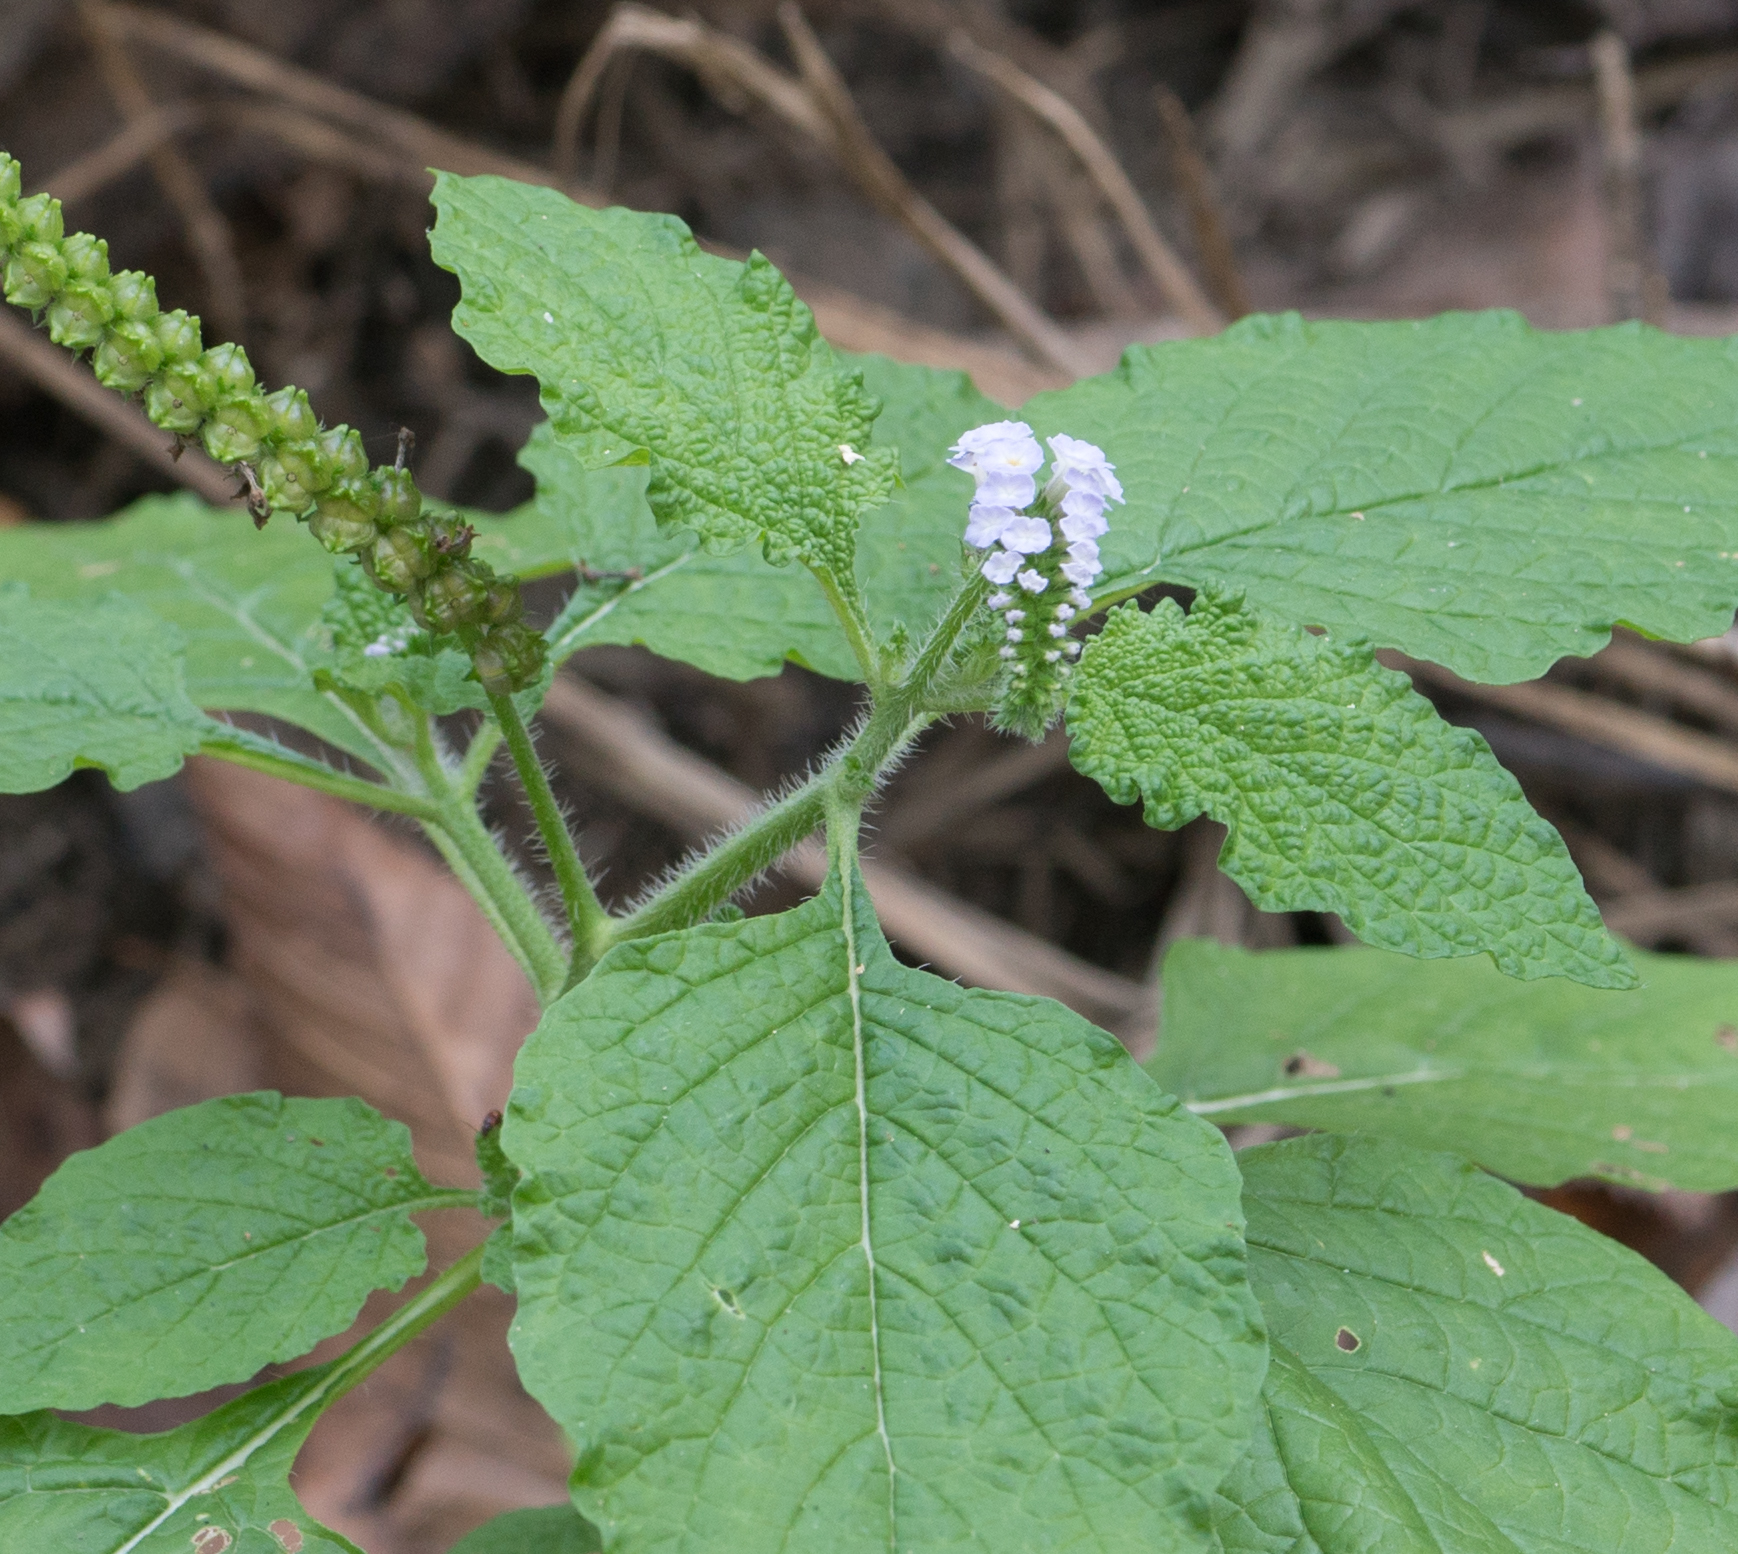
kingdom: Plantae
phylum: Tracheophyta
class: Magnoliopsida
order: Boraginales
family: Heliotropiaceae
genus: Heliotropium
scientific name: Heliotropium indicum
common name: Indian heliotrope
